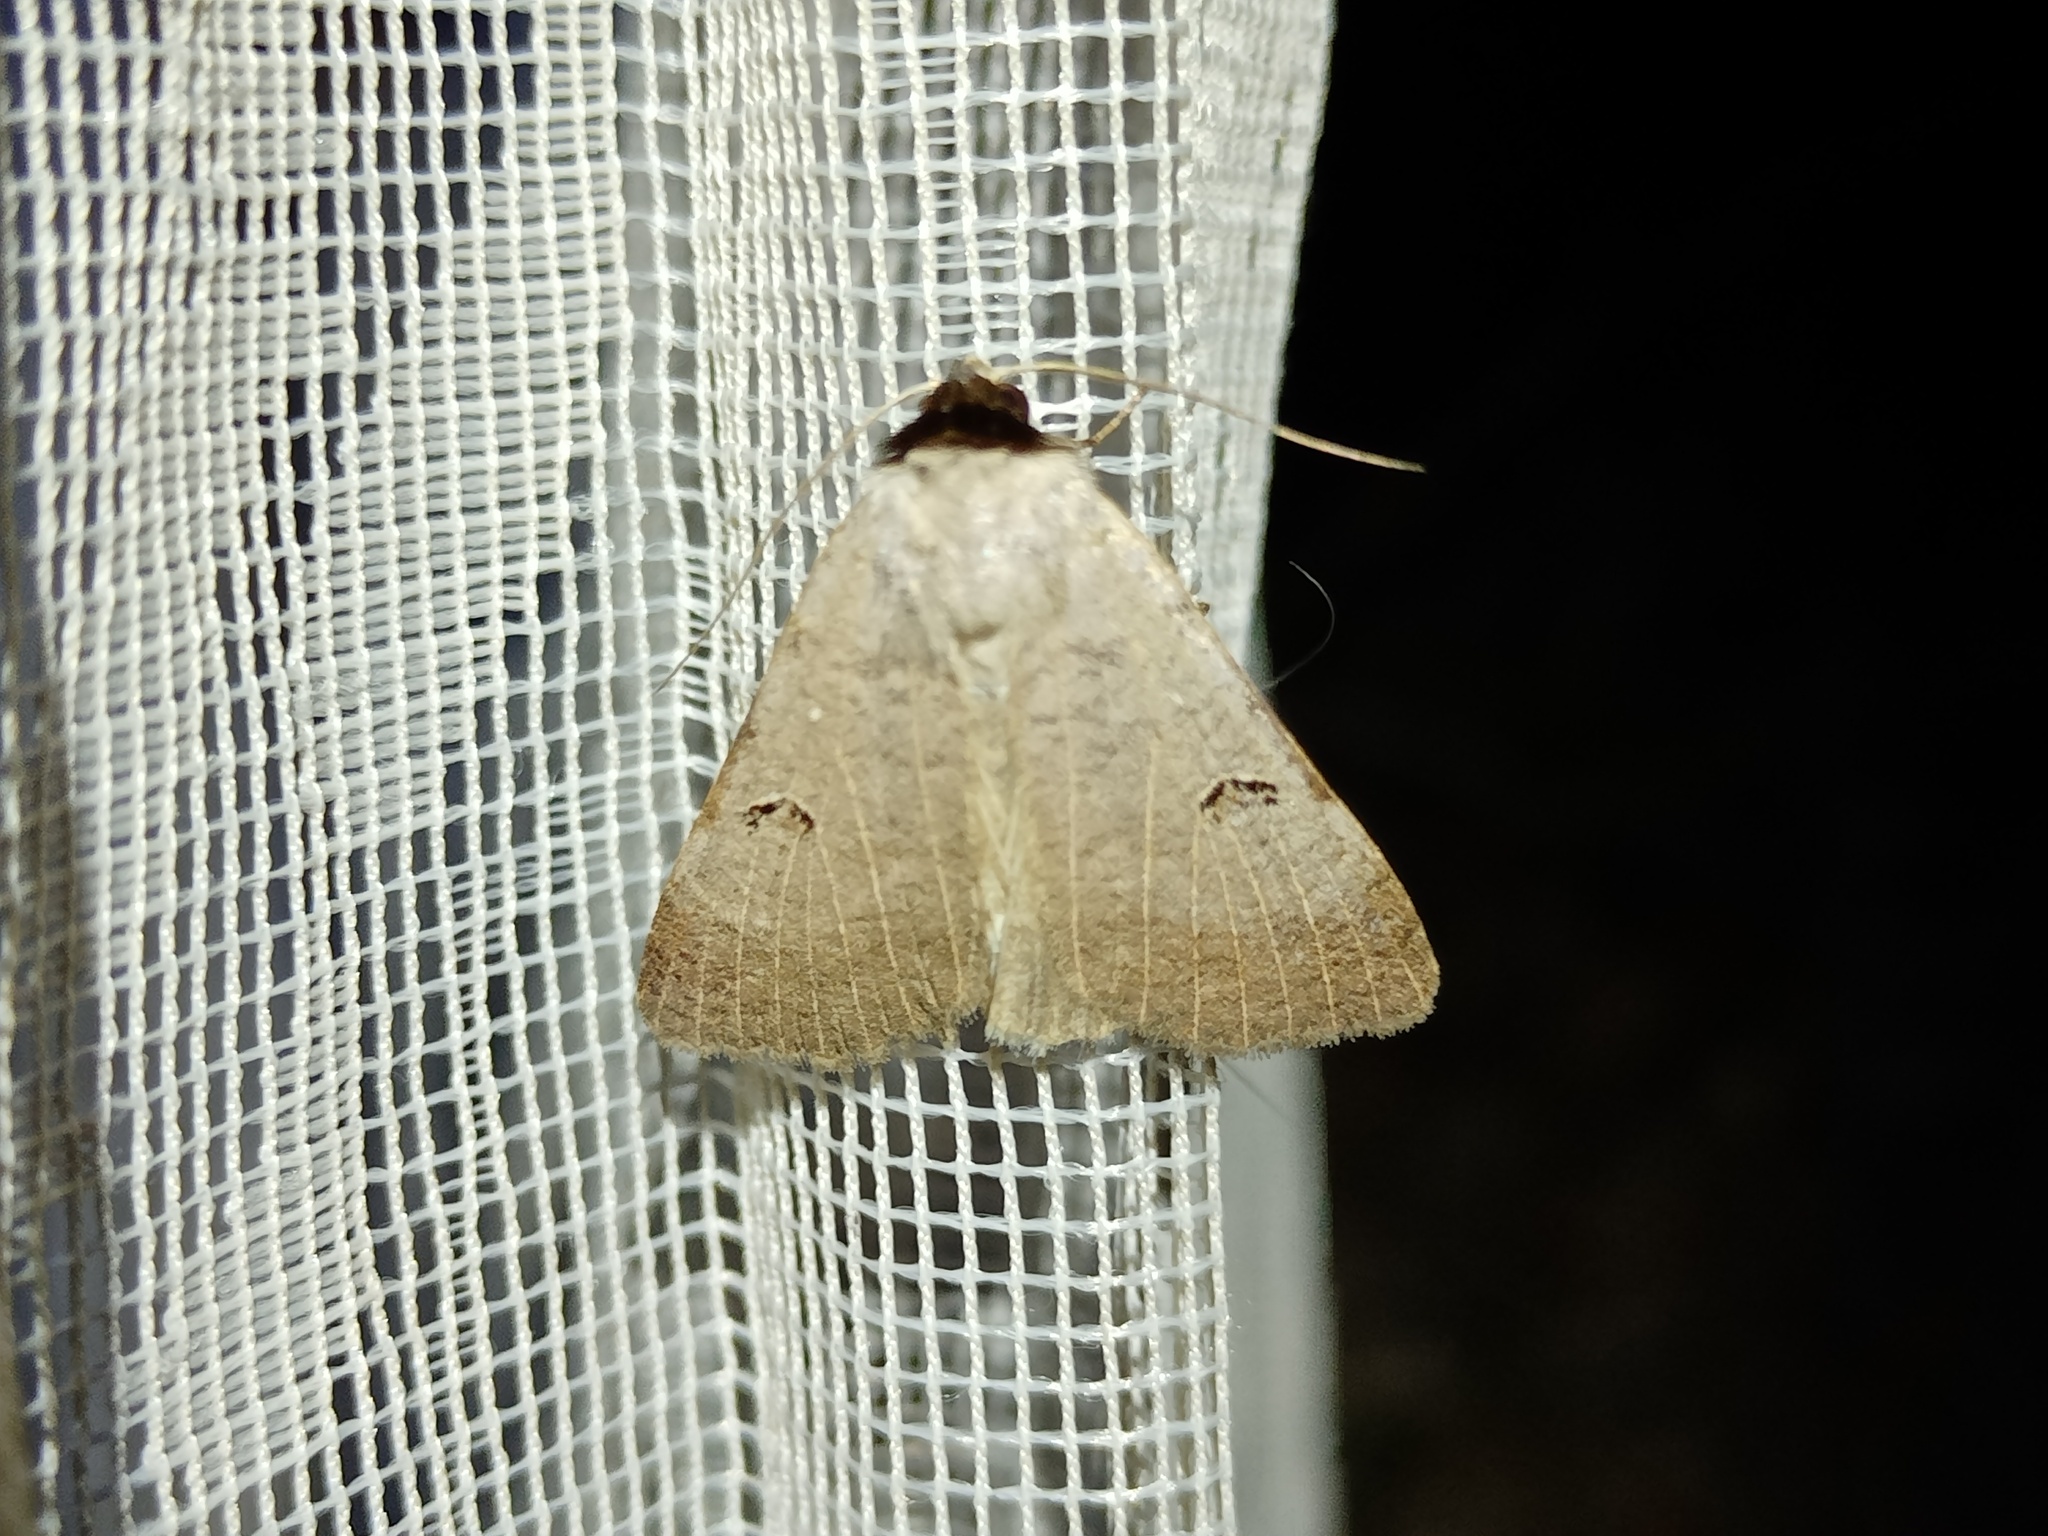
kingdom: Animalia
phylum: Arthropoda
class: Insecta
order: Lepidoptera
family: Erebidae
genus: Lygephila
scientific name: Lygephila craccae
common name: Scarce blackneck
